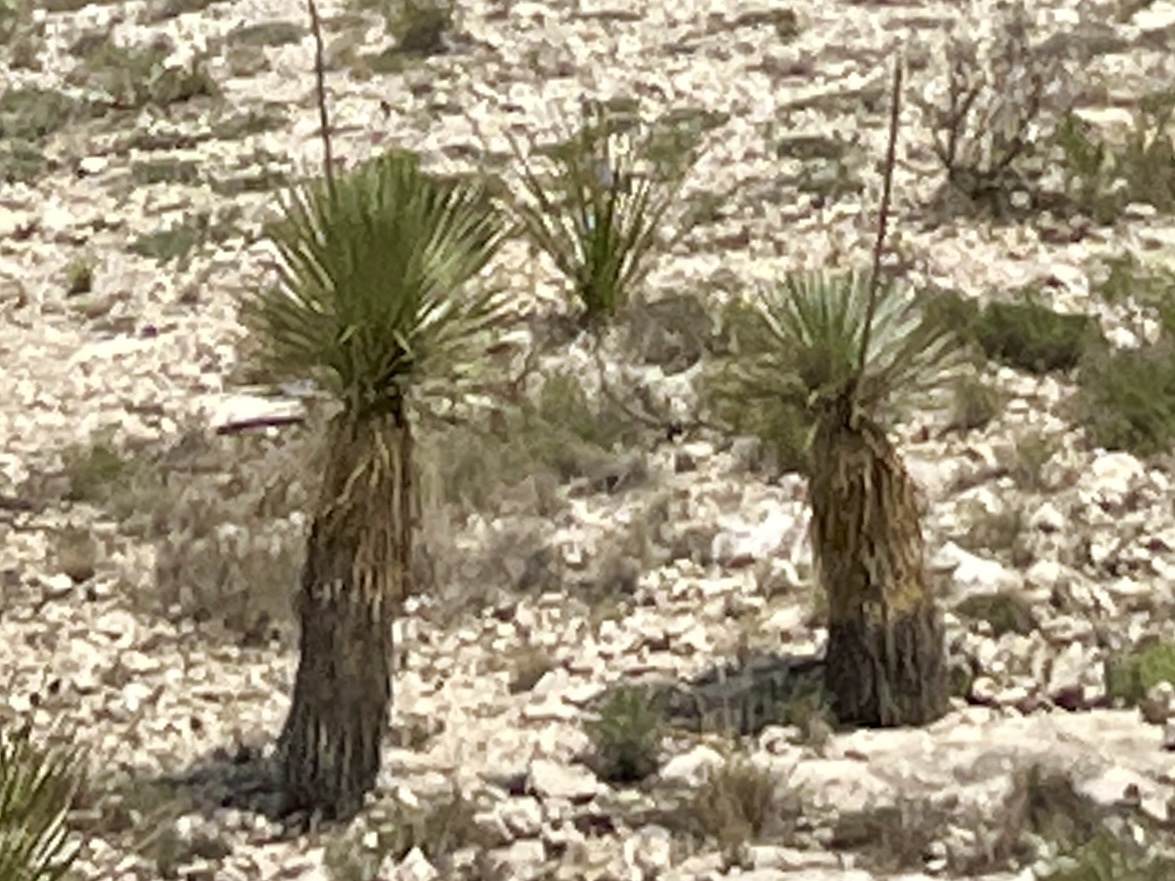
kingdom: Plantae
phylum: Tracheophyta
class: Liliopsida
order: Asparagales
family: Asparagaceae
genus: Yucca
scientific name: Yucca thompsoniana
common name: Trans-pecos yucca
